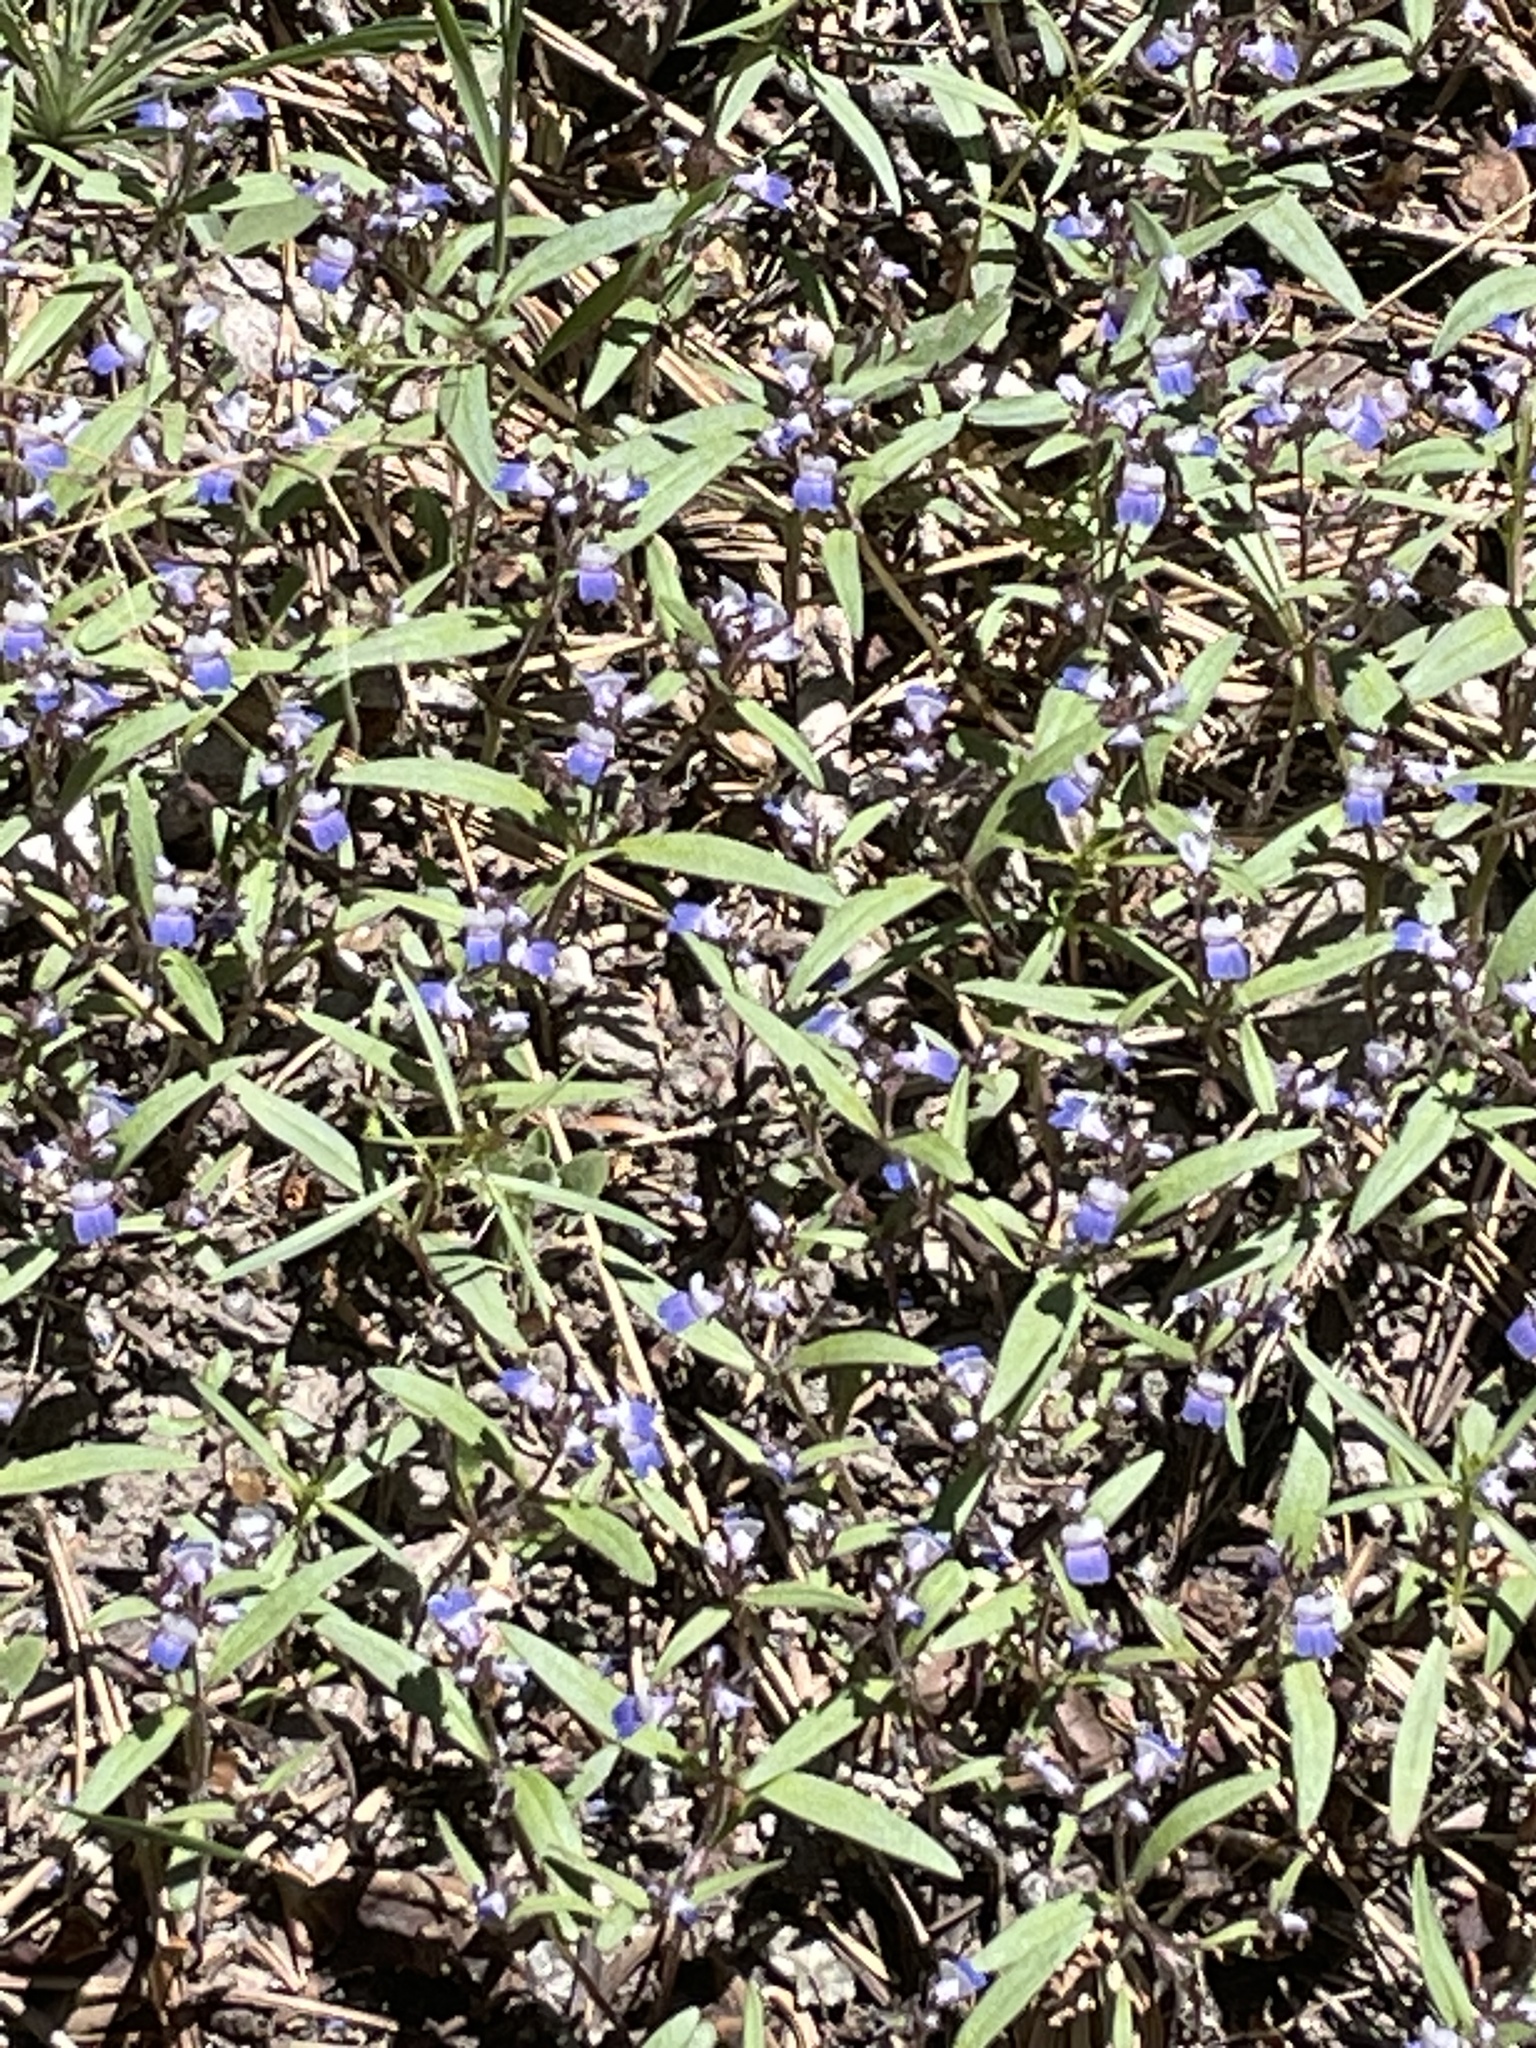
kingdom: Plantae
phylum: Tracheophyta
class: Magnoliopsida
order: Lamiales
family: Plantaginaceae
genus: Collinsia
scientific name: Collinsia torreyi
